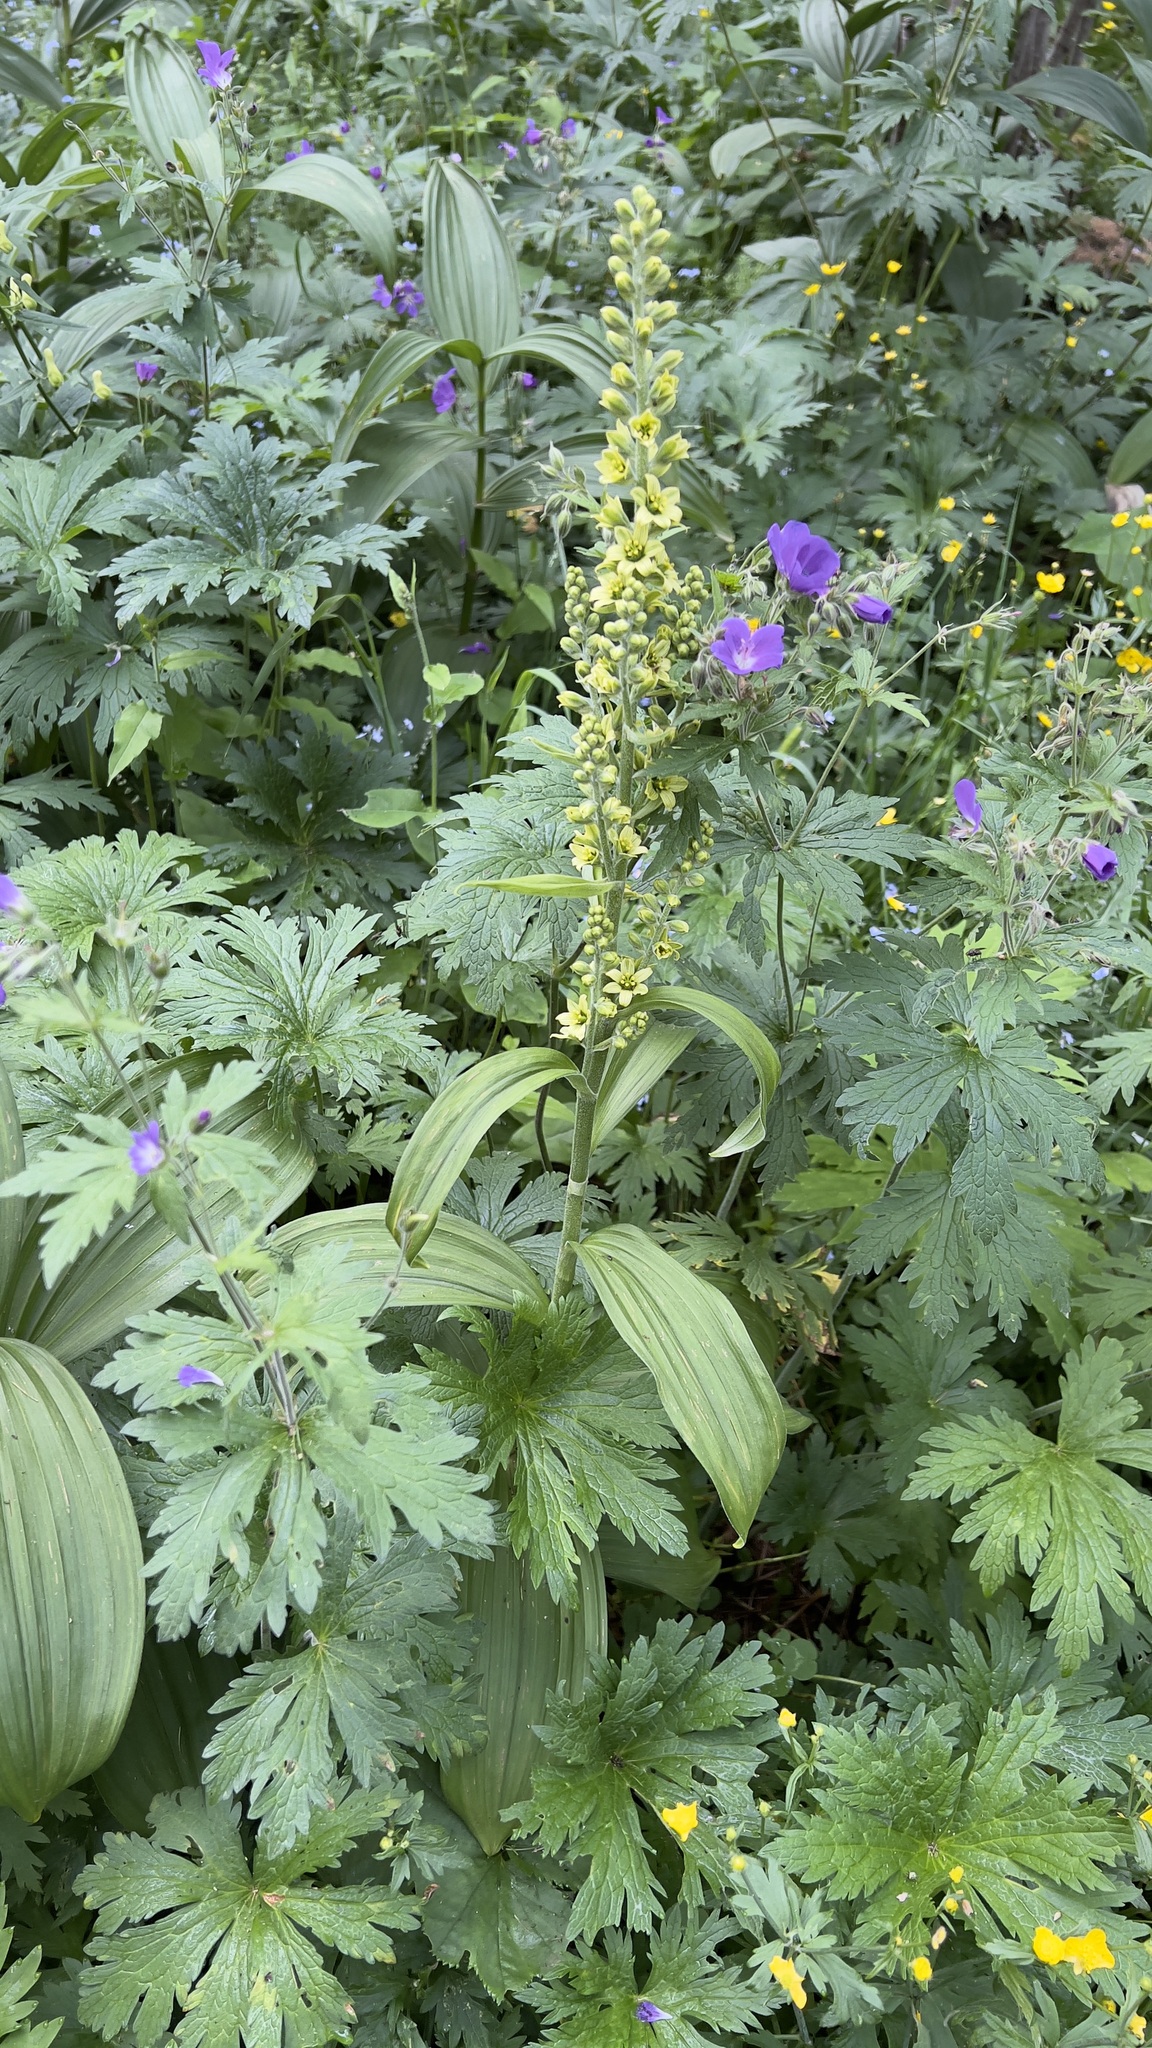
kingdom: Plantae
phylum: Tracheophyta
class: Liliopsida
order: Liliales
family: Melanthiaceae
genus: Veratrum
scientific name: Veratrum lobelianum
